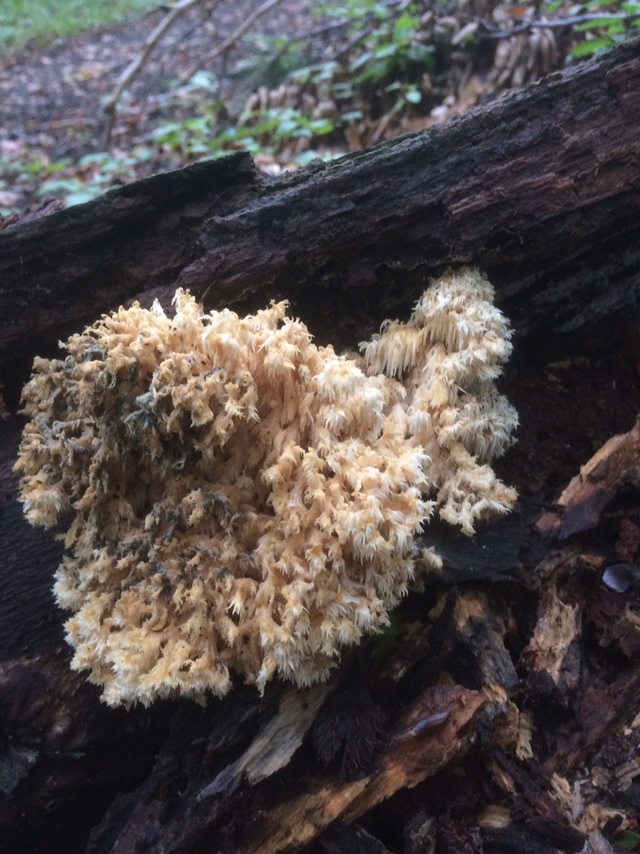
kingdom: Fungi
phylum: Basidiomycota
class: Agaricomycetes
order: Russulales
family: Hericiaceae
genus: Hericium
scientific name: Hericium coralloides
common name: Coral tooth
